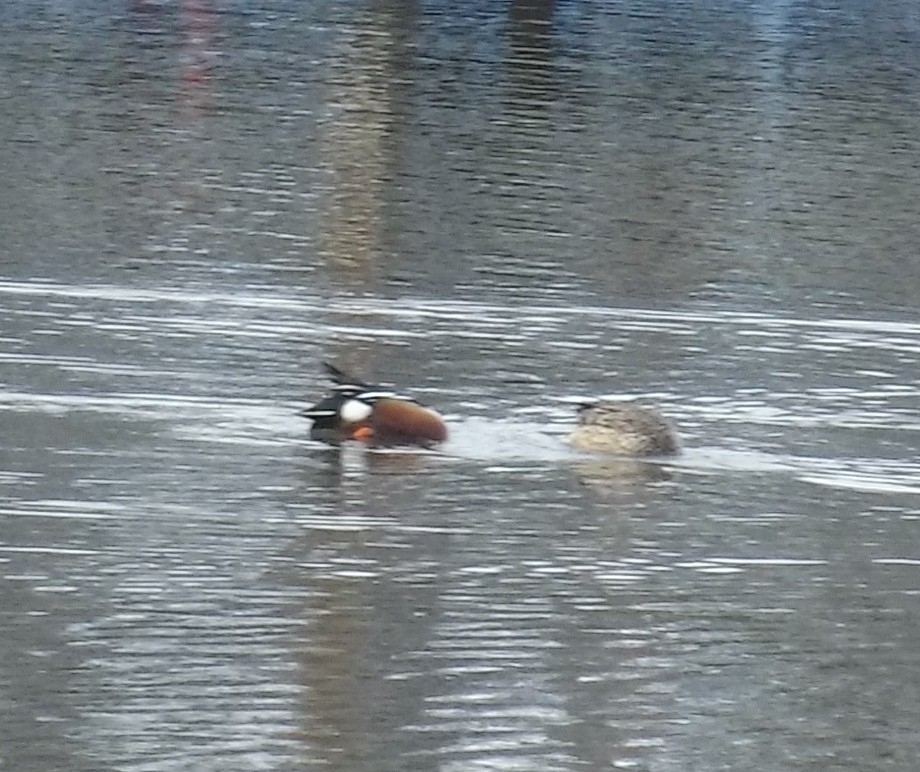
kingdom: Animalia
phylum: Chordata
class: Aves
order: Anseriformes
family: Anatidae
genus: Spatula
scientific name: Spatula clypeata
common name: Northern shoveler
